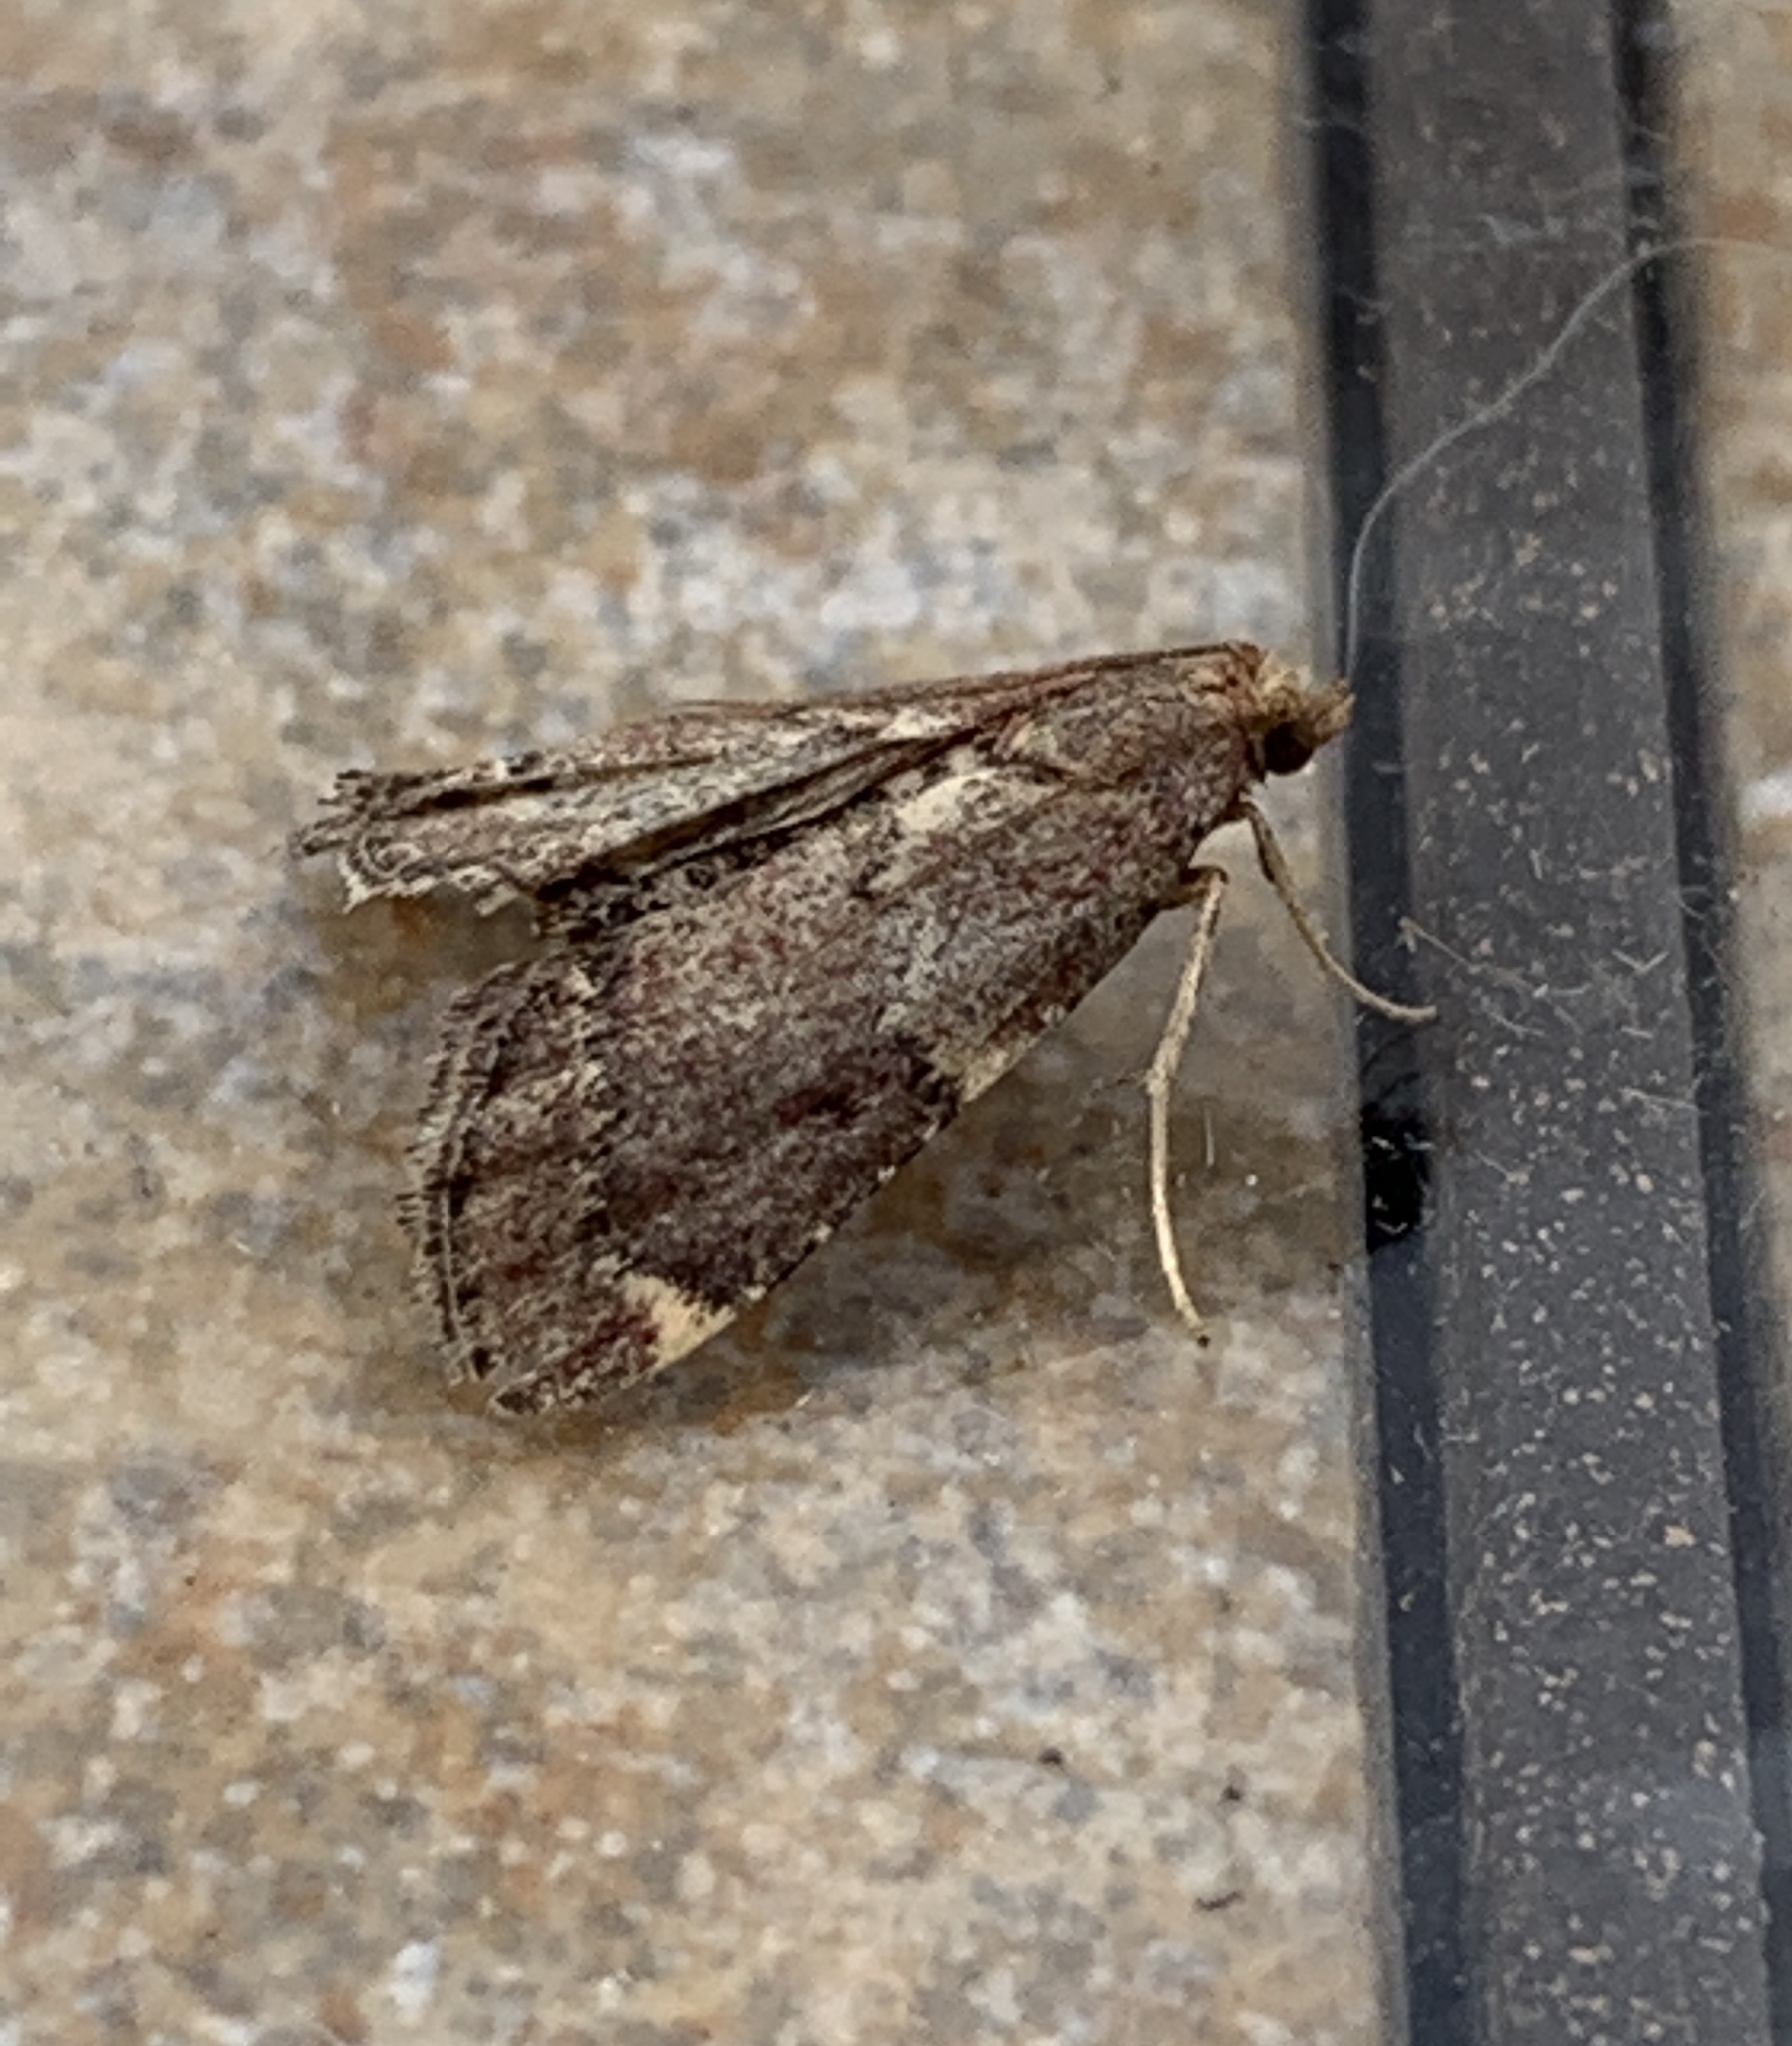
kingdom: Animalia
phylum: Arthropoda
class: Insecta
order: Lepidoptera
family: Pyralidae
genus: Hypsopygia
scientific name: Hypsopygia intermedialis
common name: Red-shawled moth
